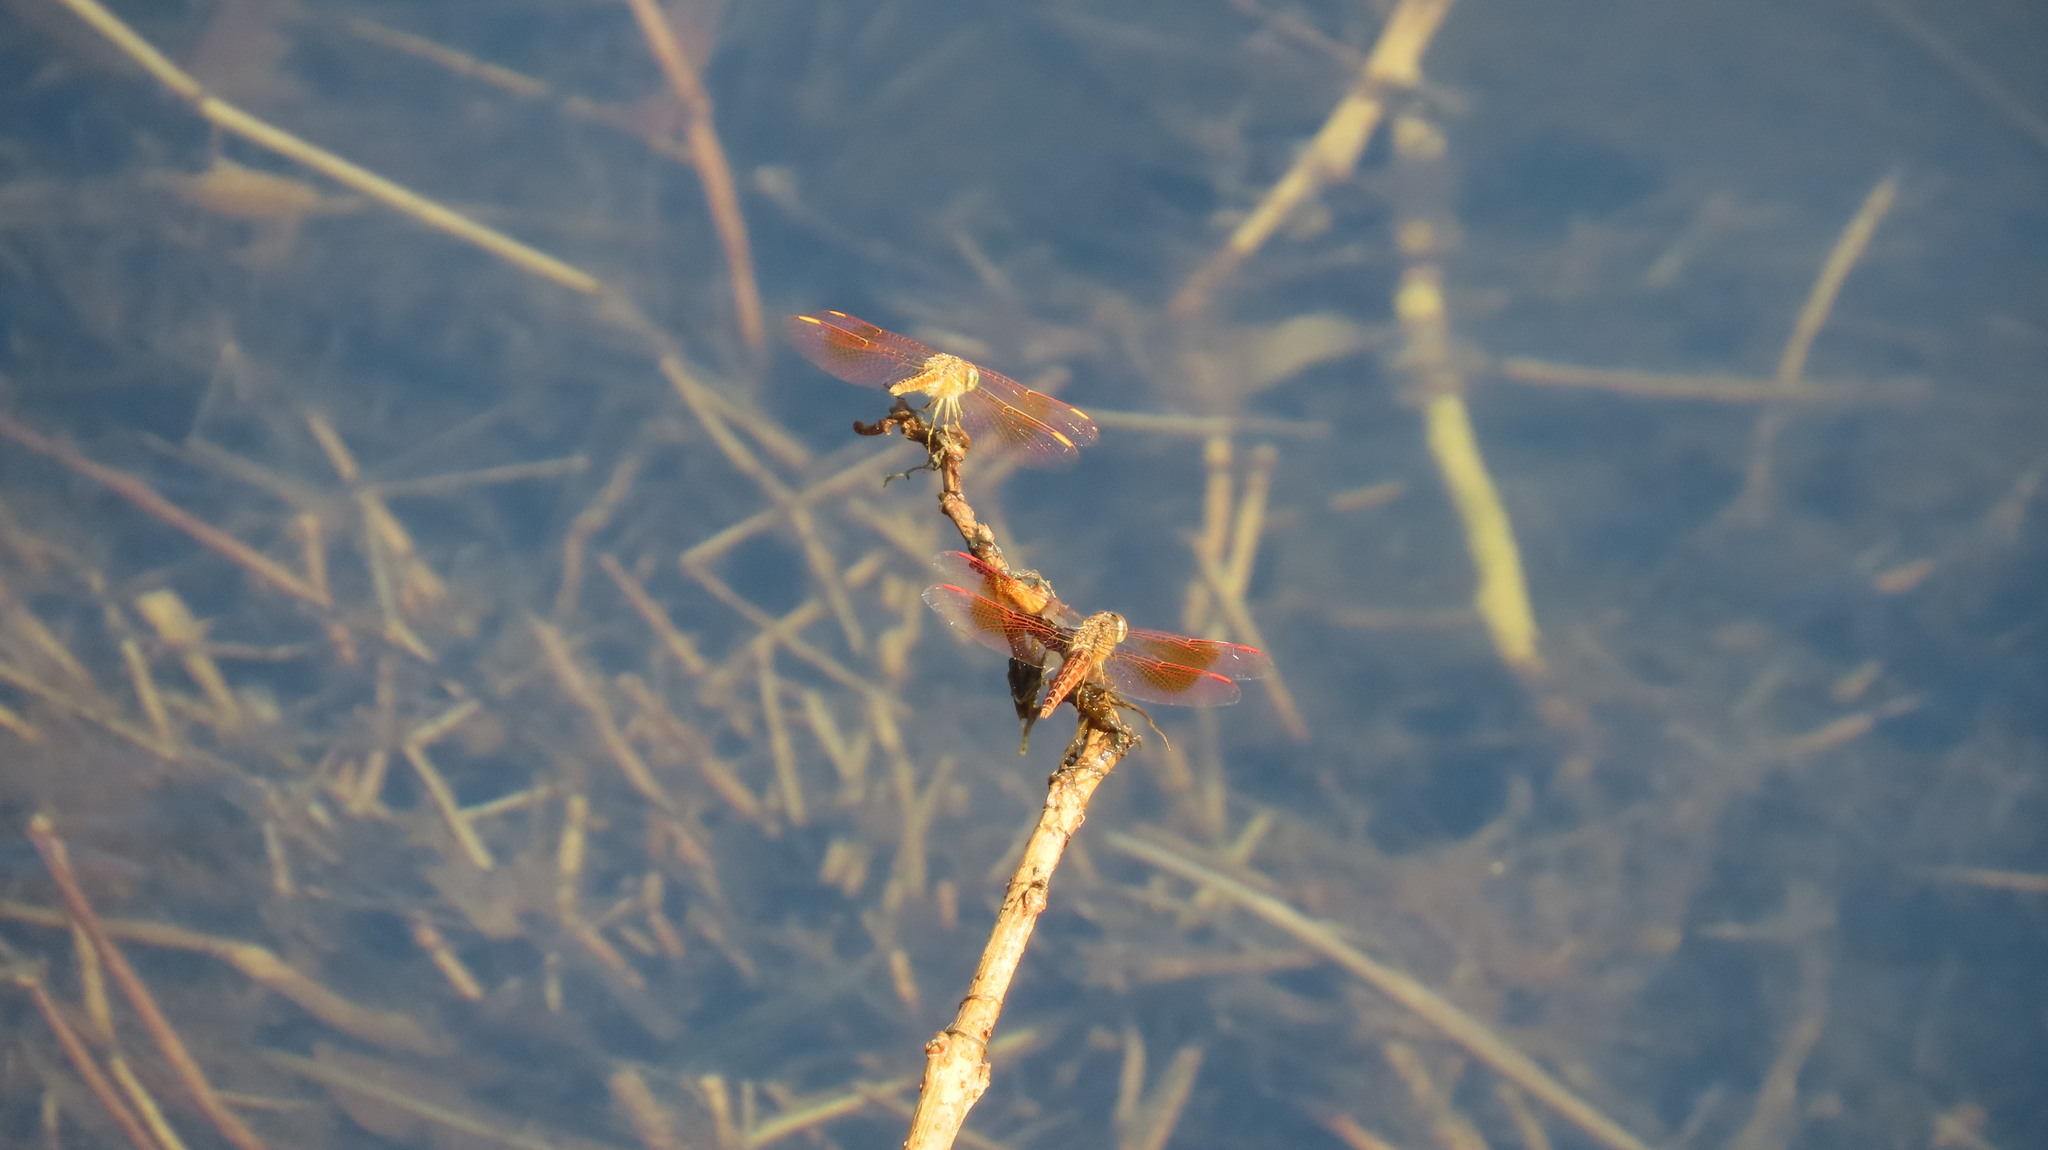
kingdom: Animalia
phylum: Arthropoda
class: Insecta
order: Odonata
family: Libellulidae
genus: Brachythemis
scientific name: Brachythemis contaminata
